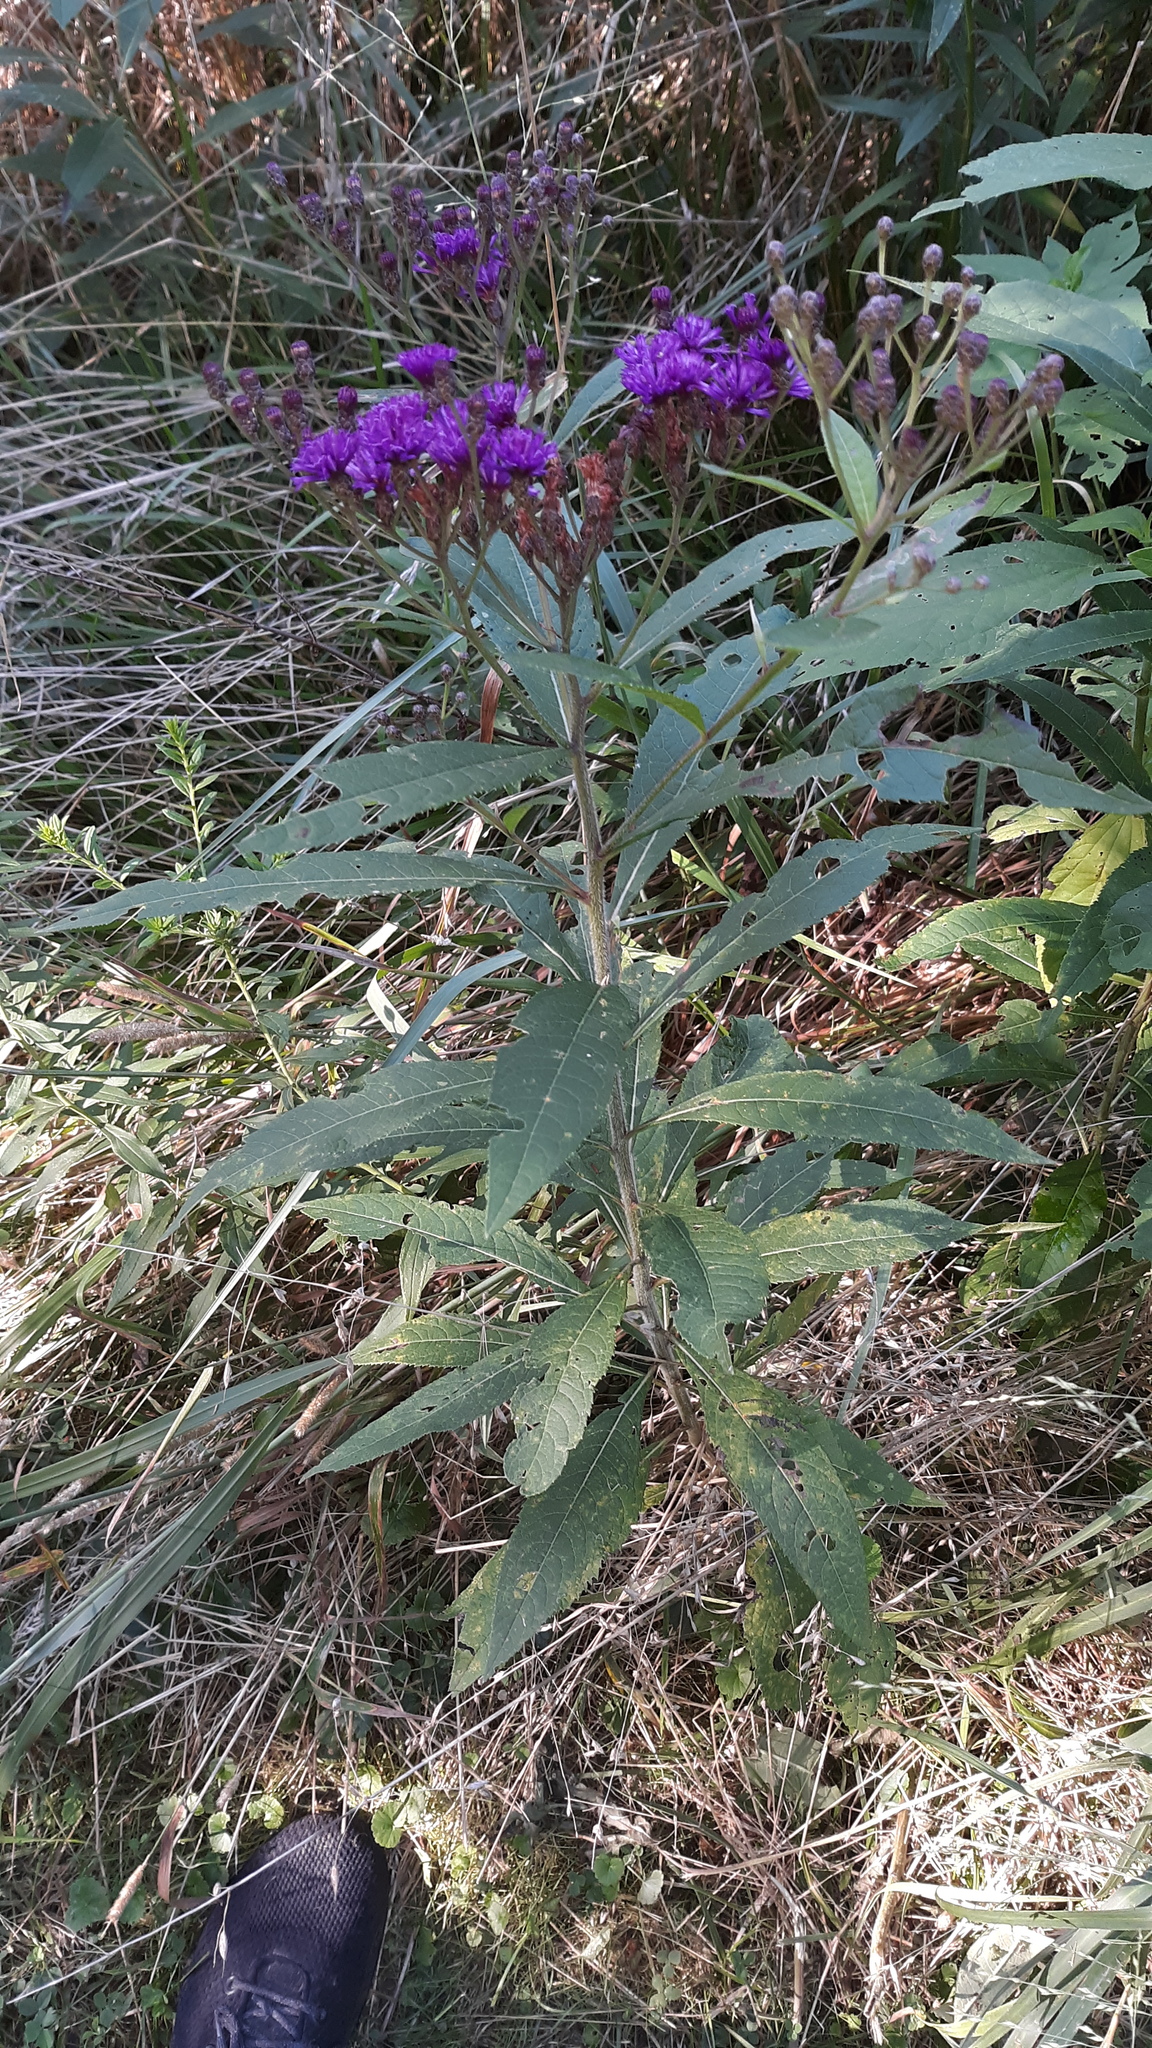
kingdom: Plantae
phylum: Tracheophyta
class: Magnoliopsida
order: Asterales
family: Asteraceae
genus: Vernonia
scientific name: Vernonia gigantea
